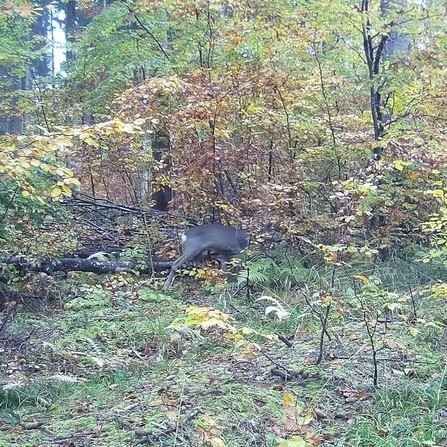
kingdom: Animalia
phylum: Chordata
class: Mammalia
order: Artiodactyla
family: Cervidae
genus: Capreolus
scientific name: Capreolus capreolus
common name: Western roe deer
